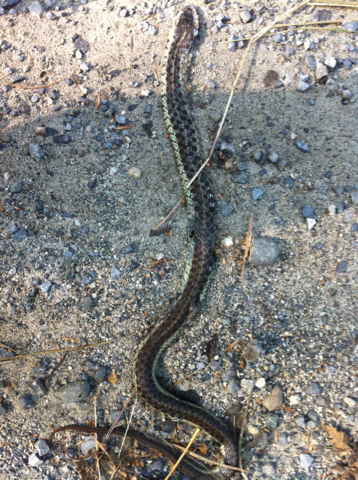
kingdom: Animalia
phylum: Chordata
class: Squamata
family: Colubridae
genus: Thamnophis
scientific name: Thamnophis sirtalis
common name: Common garter snake
